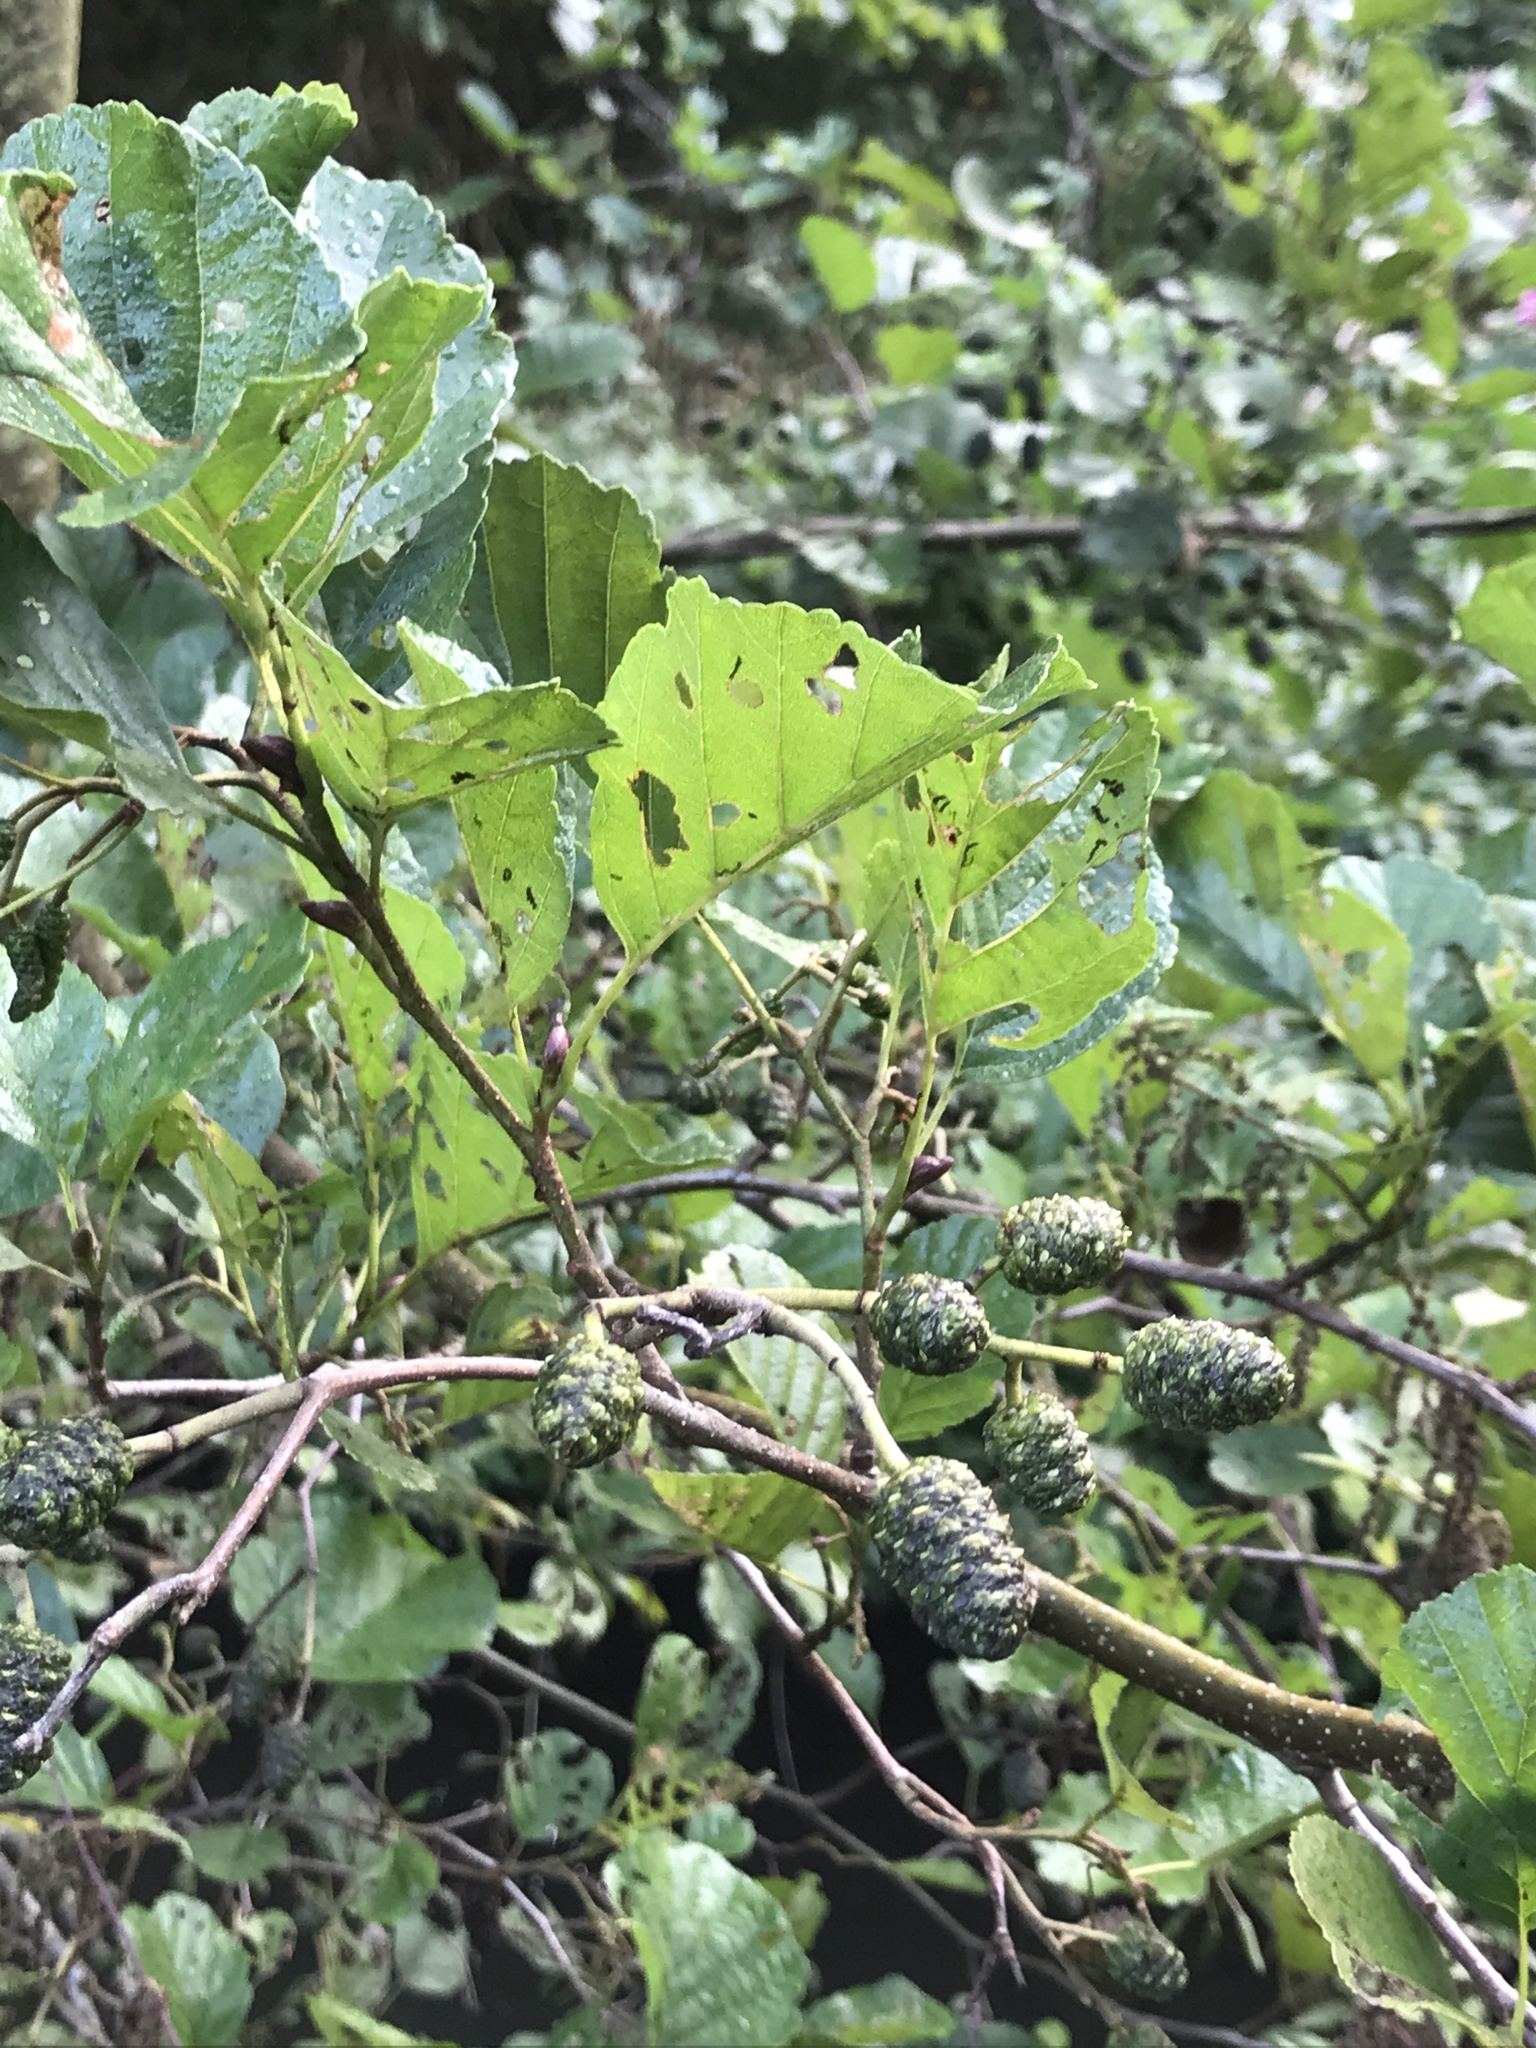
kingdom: Plantae
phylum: Tracheophyta
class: Magnoliopsida
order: Fagales
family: Betulaceae
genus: Alnus
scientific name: Alnus glutinosa
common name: Black alder
